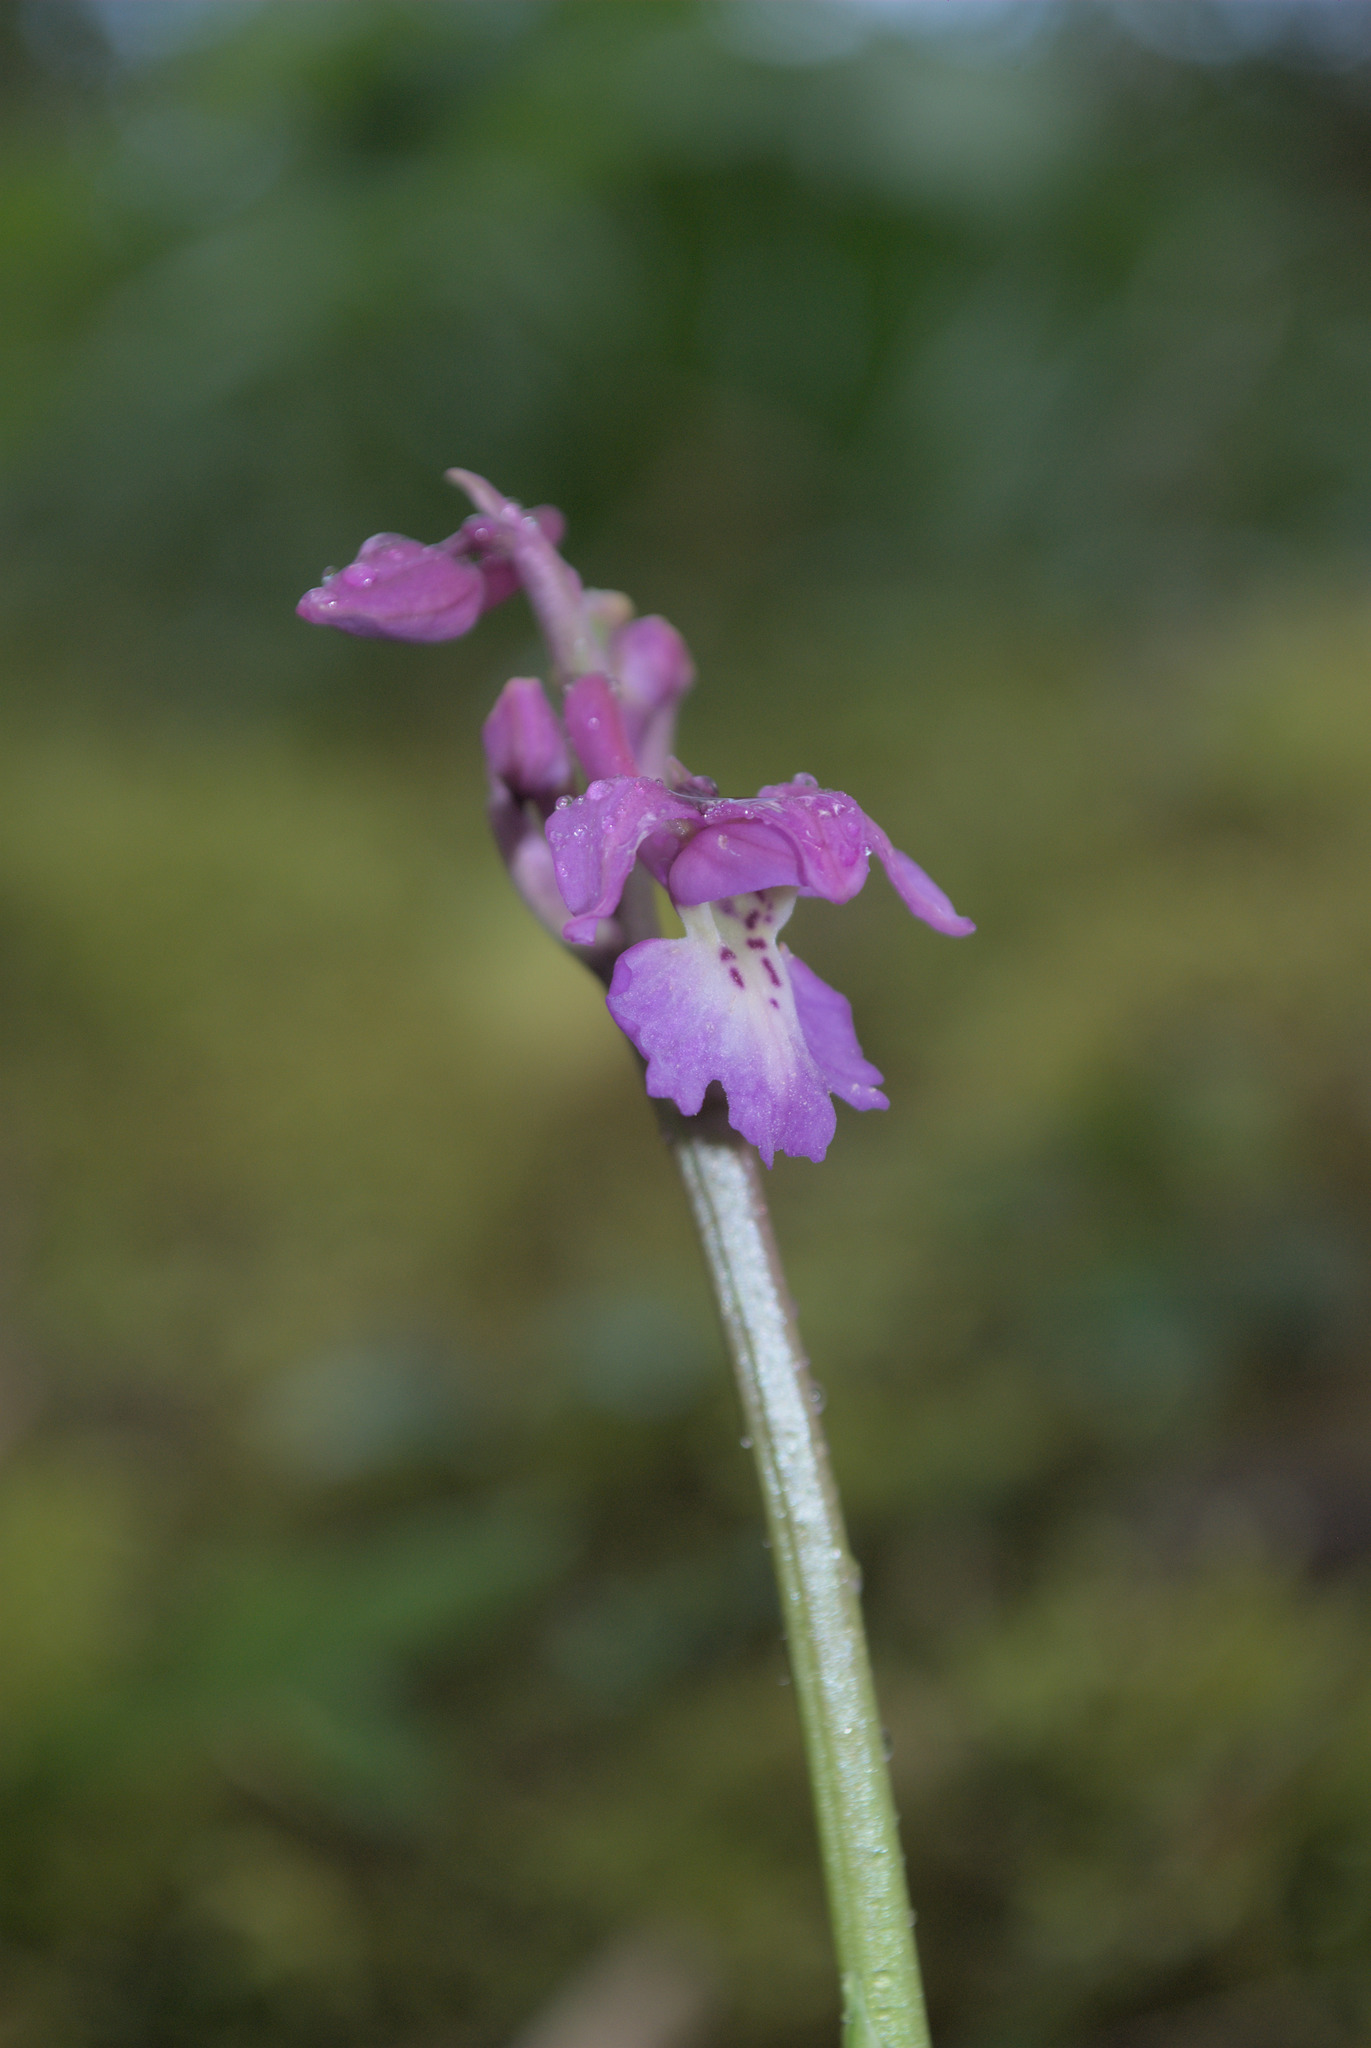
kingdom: Plantae
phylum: Tracheophyta
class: Liliopsida
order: Asparagales
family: Orchidaceae
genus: Orchis
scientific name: Orchis mascula
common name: Early-purple orchid
